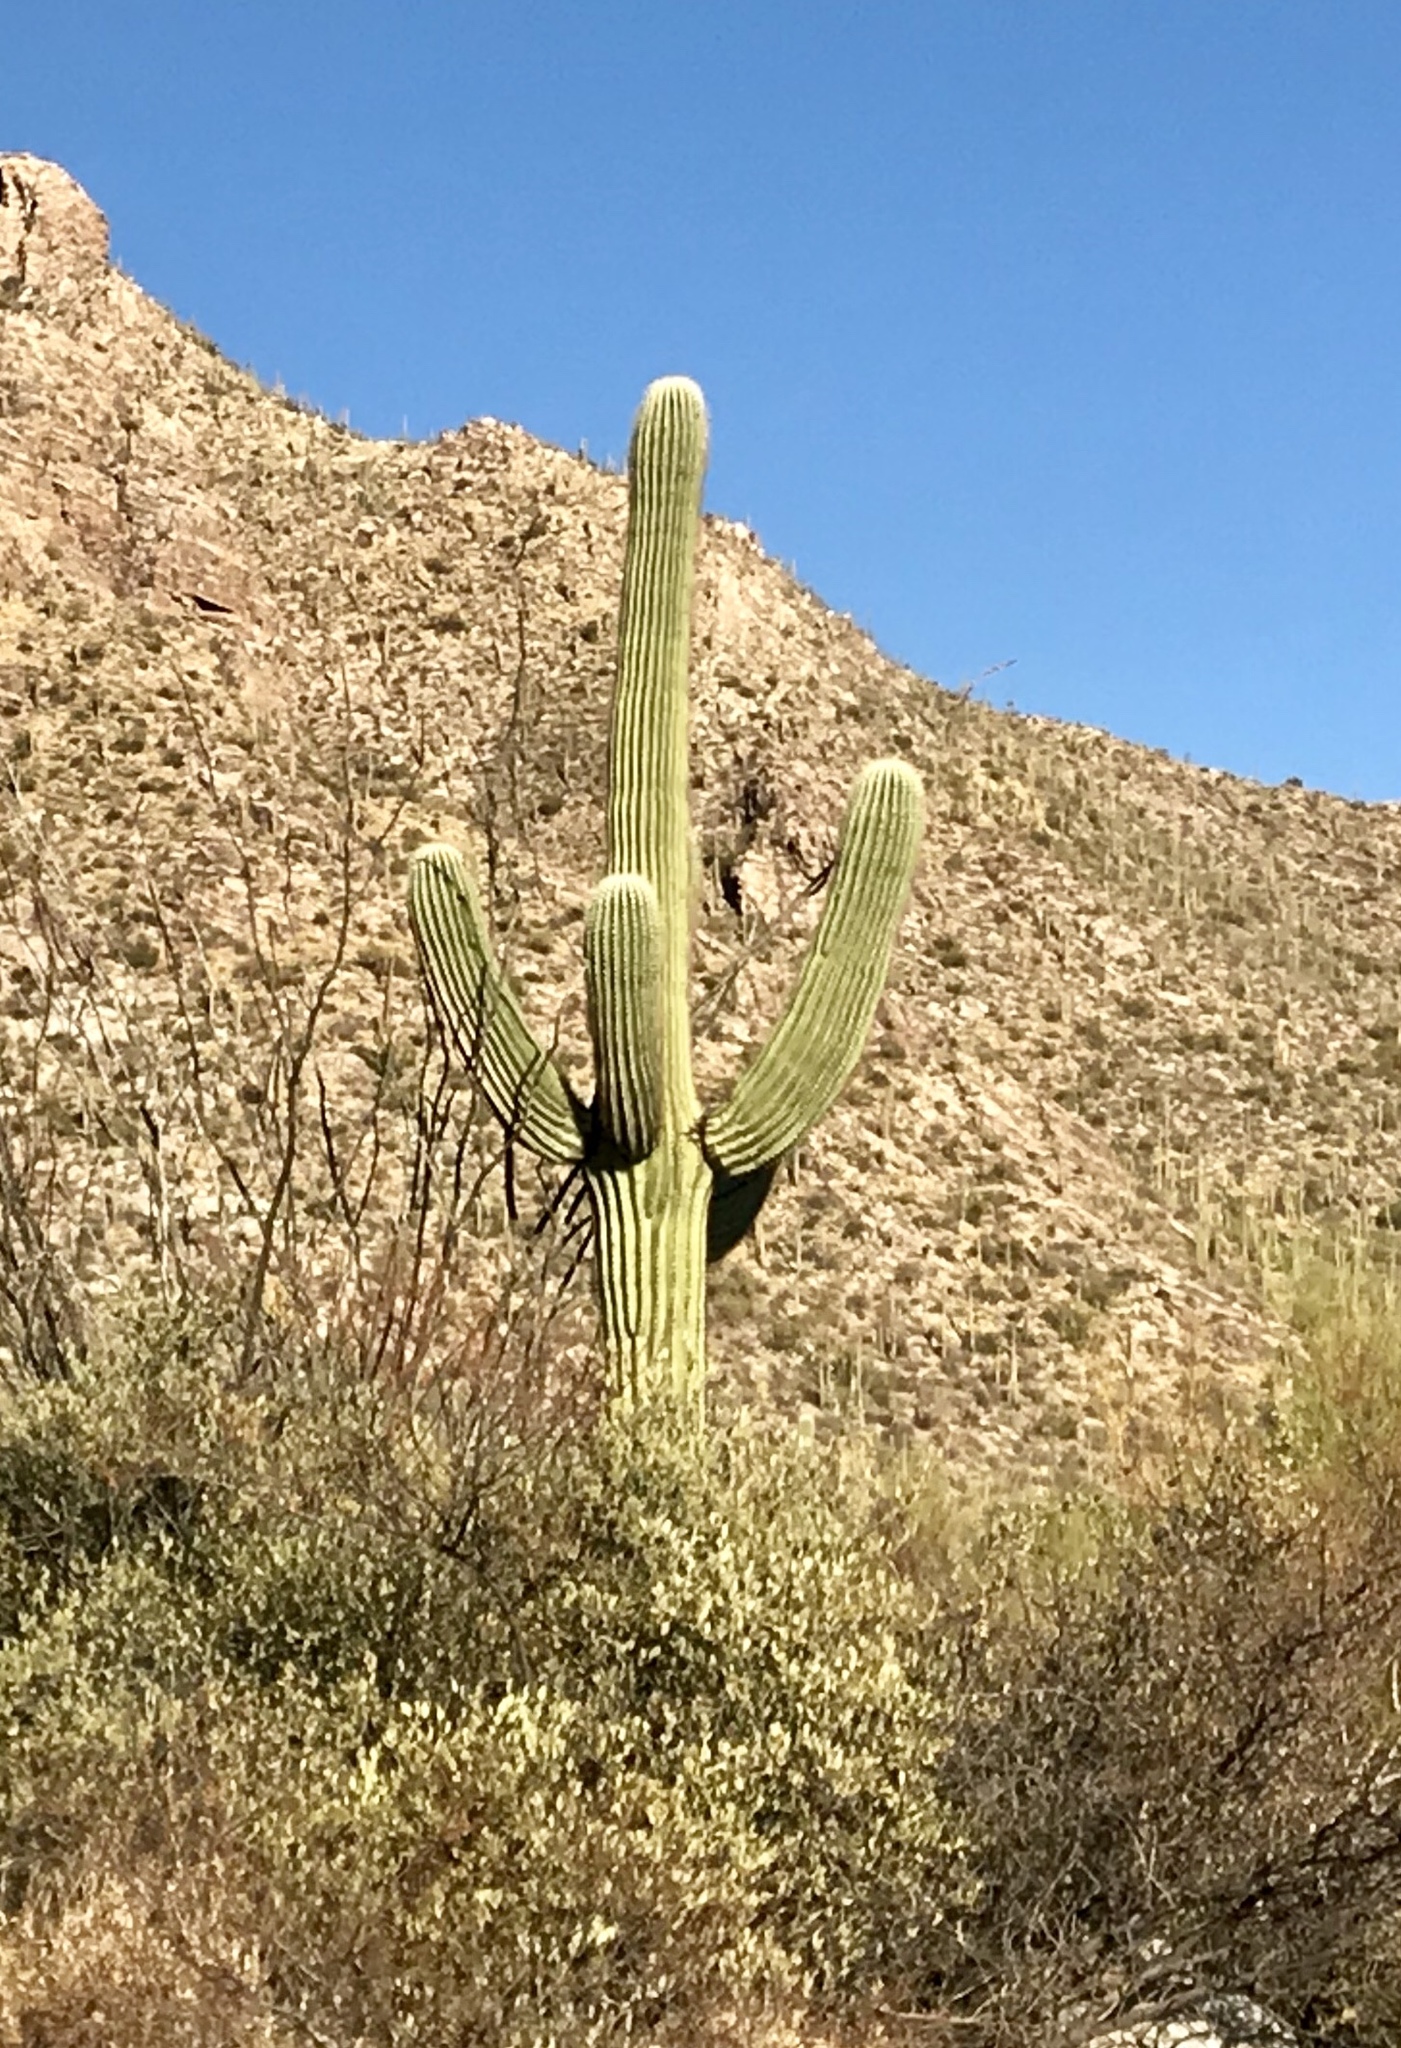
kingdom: Plantae
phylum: Tracheophyta
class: Magnoliopsida
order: Caryophyllales
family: Cactaceae
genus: Carnegiea
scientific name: Carnegiea gigantea
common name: Saguaro
